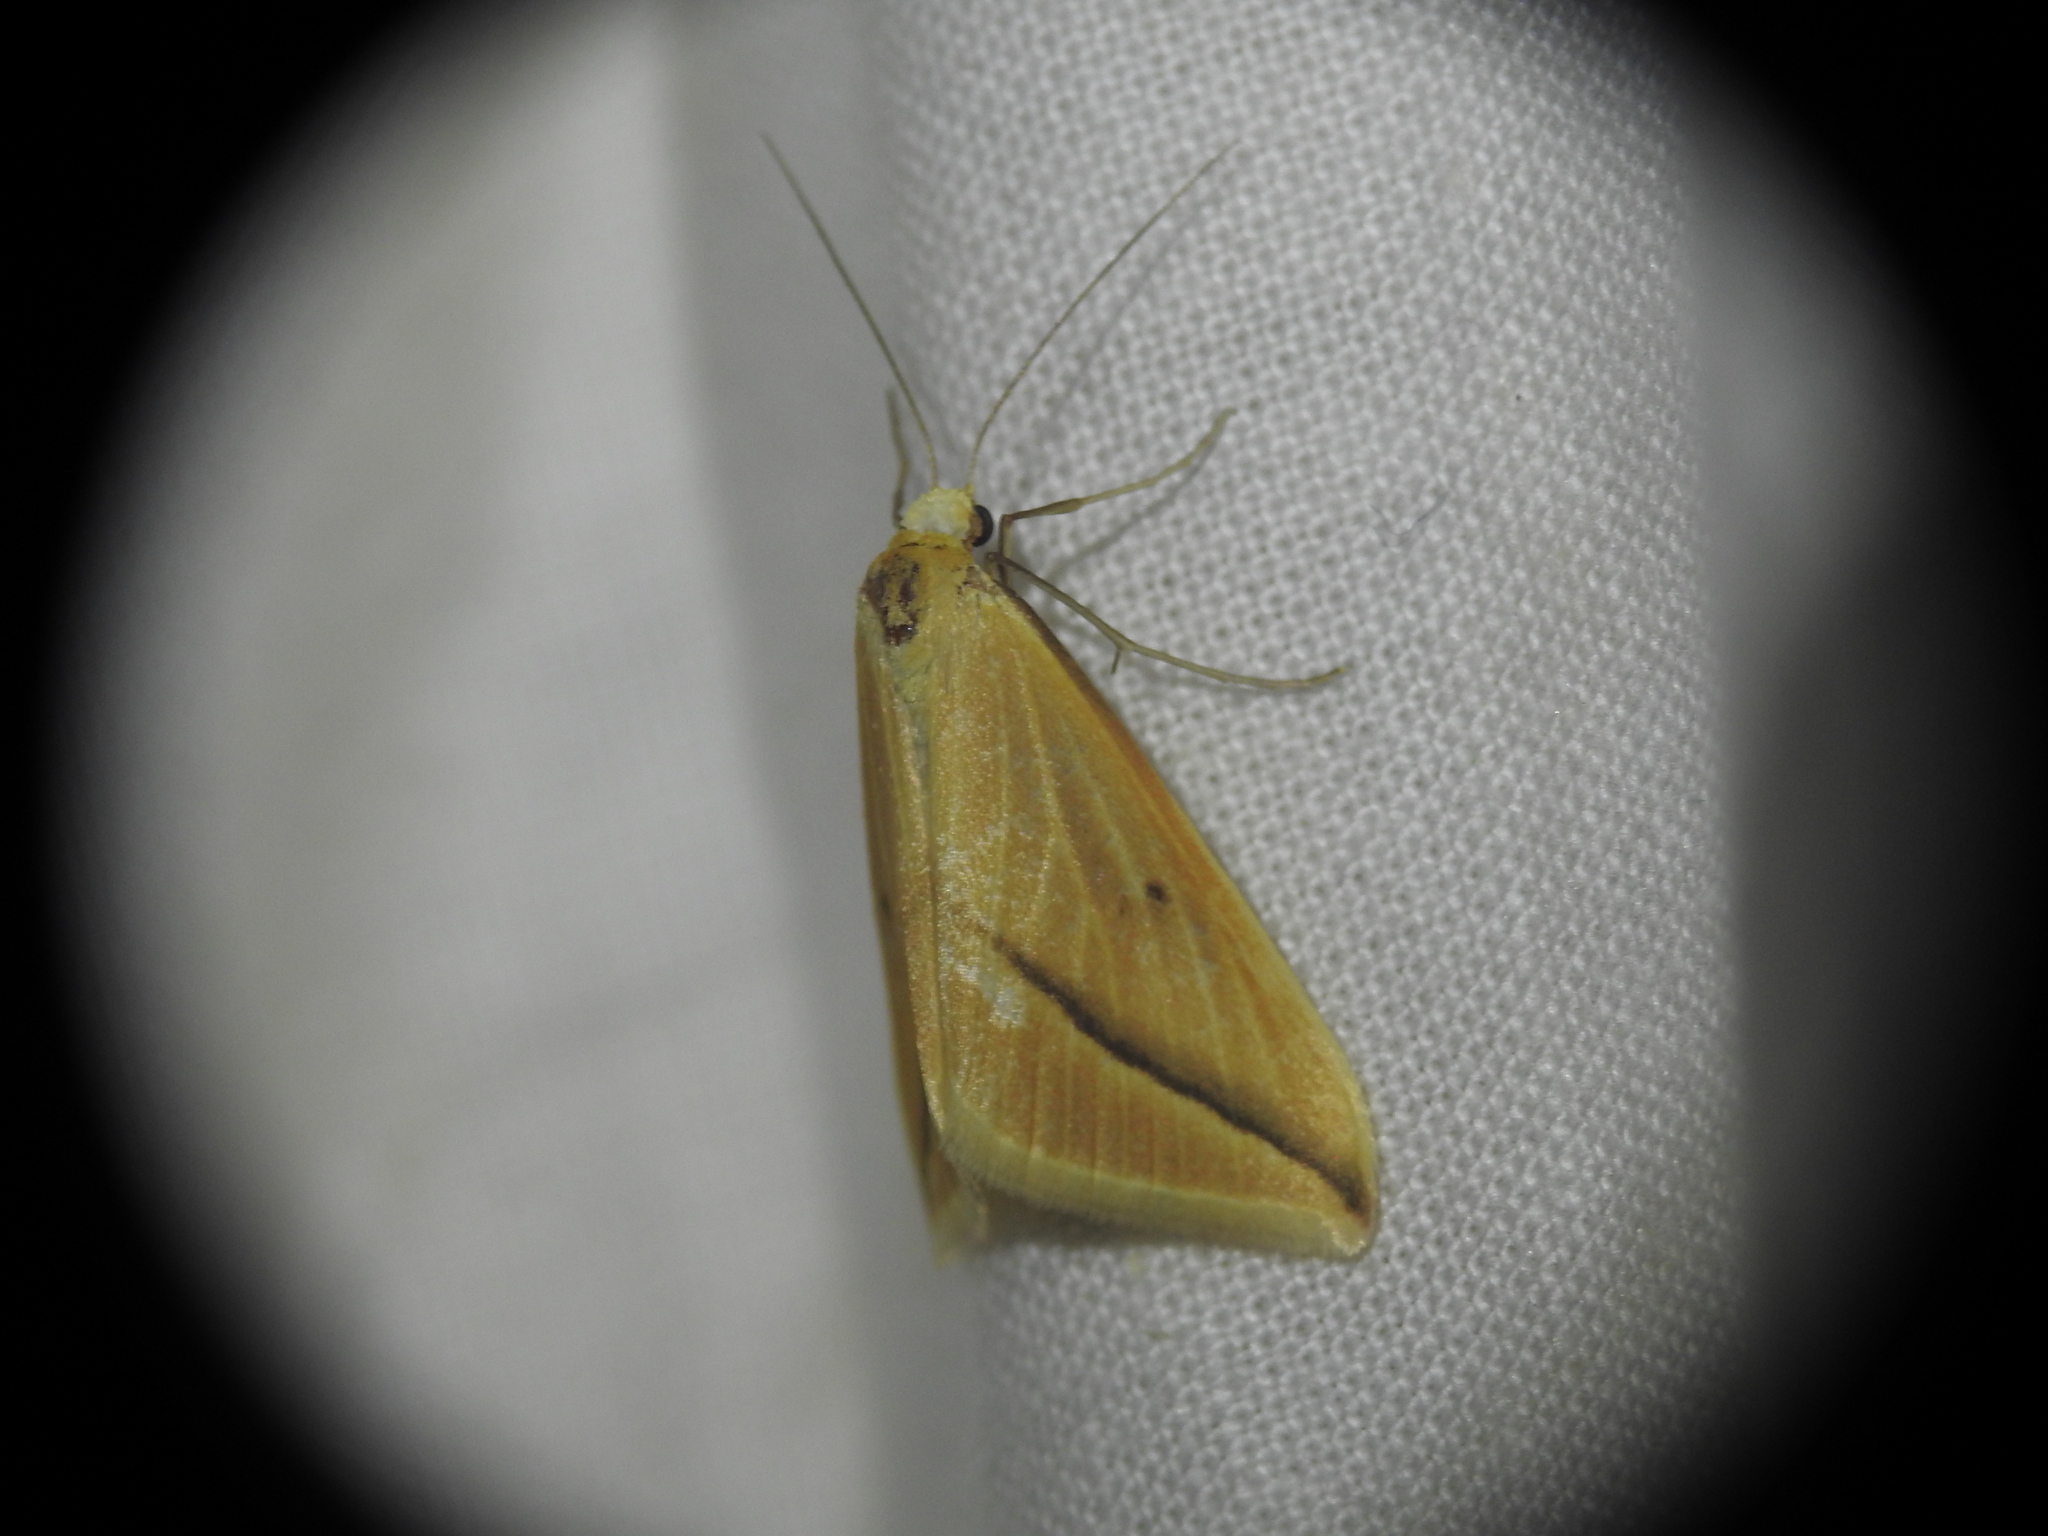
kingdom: Animalia
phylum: Arthropoda
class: Insecta
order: Lepidoptera
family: Geometridae
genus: Rhodometra
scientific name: Rhodometra sacraria
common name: Vestal
